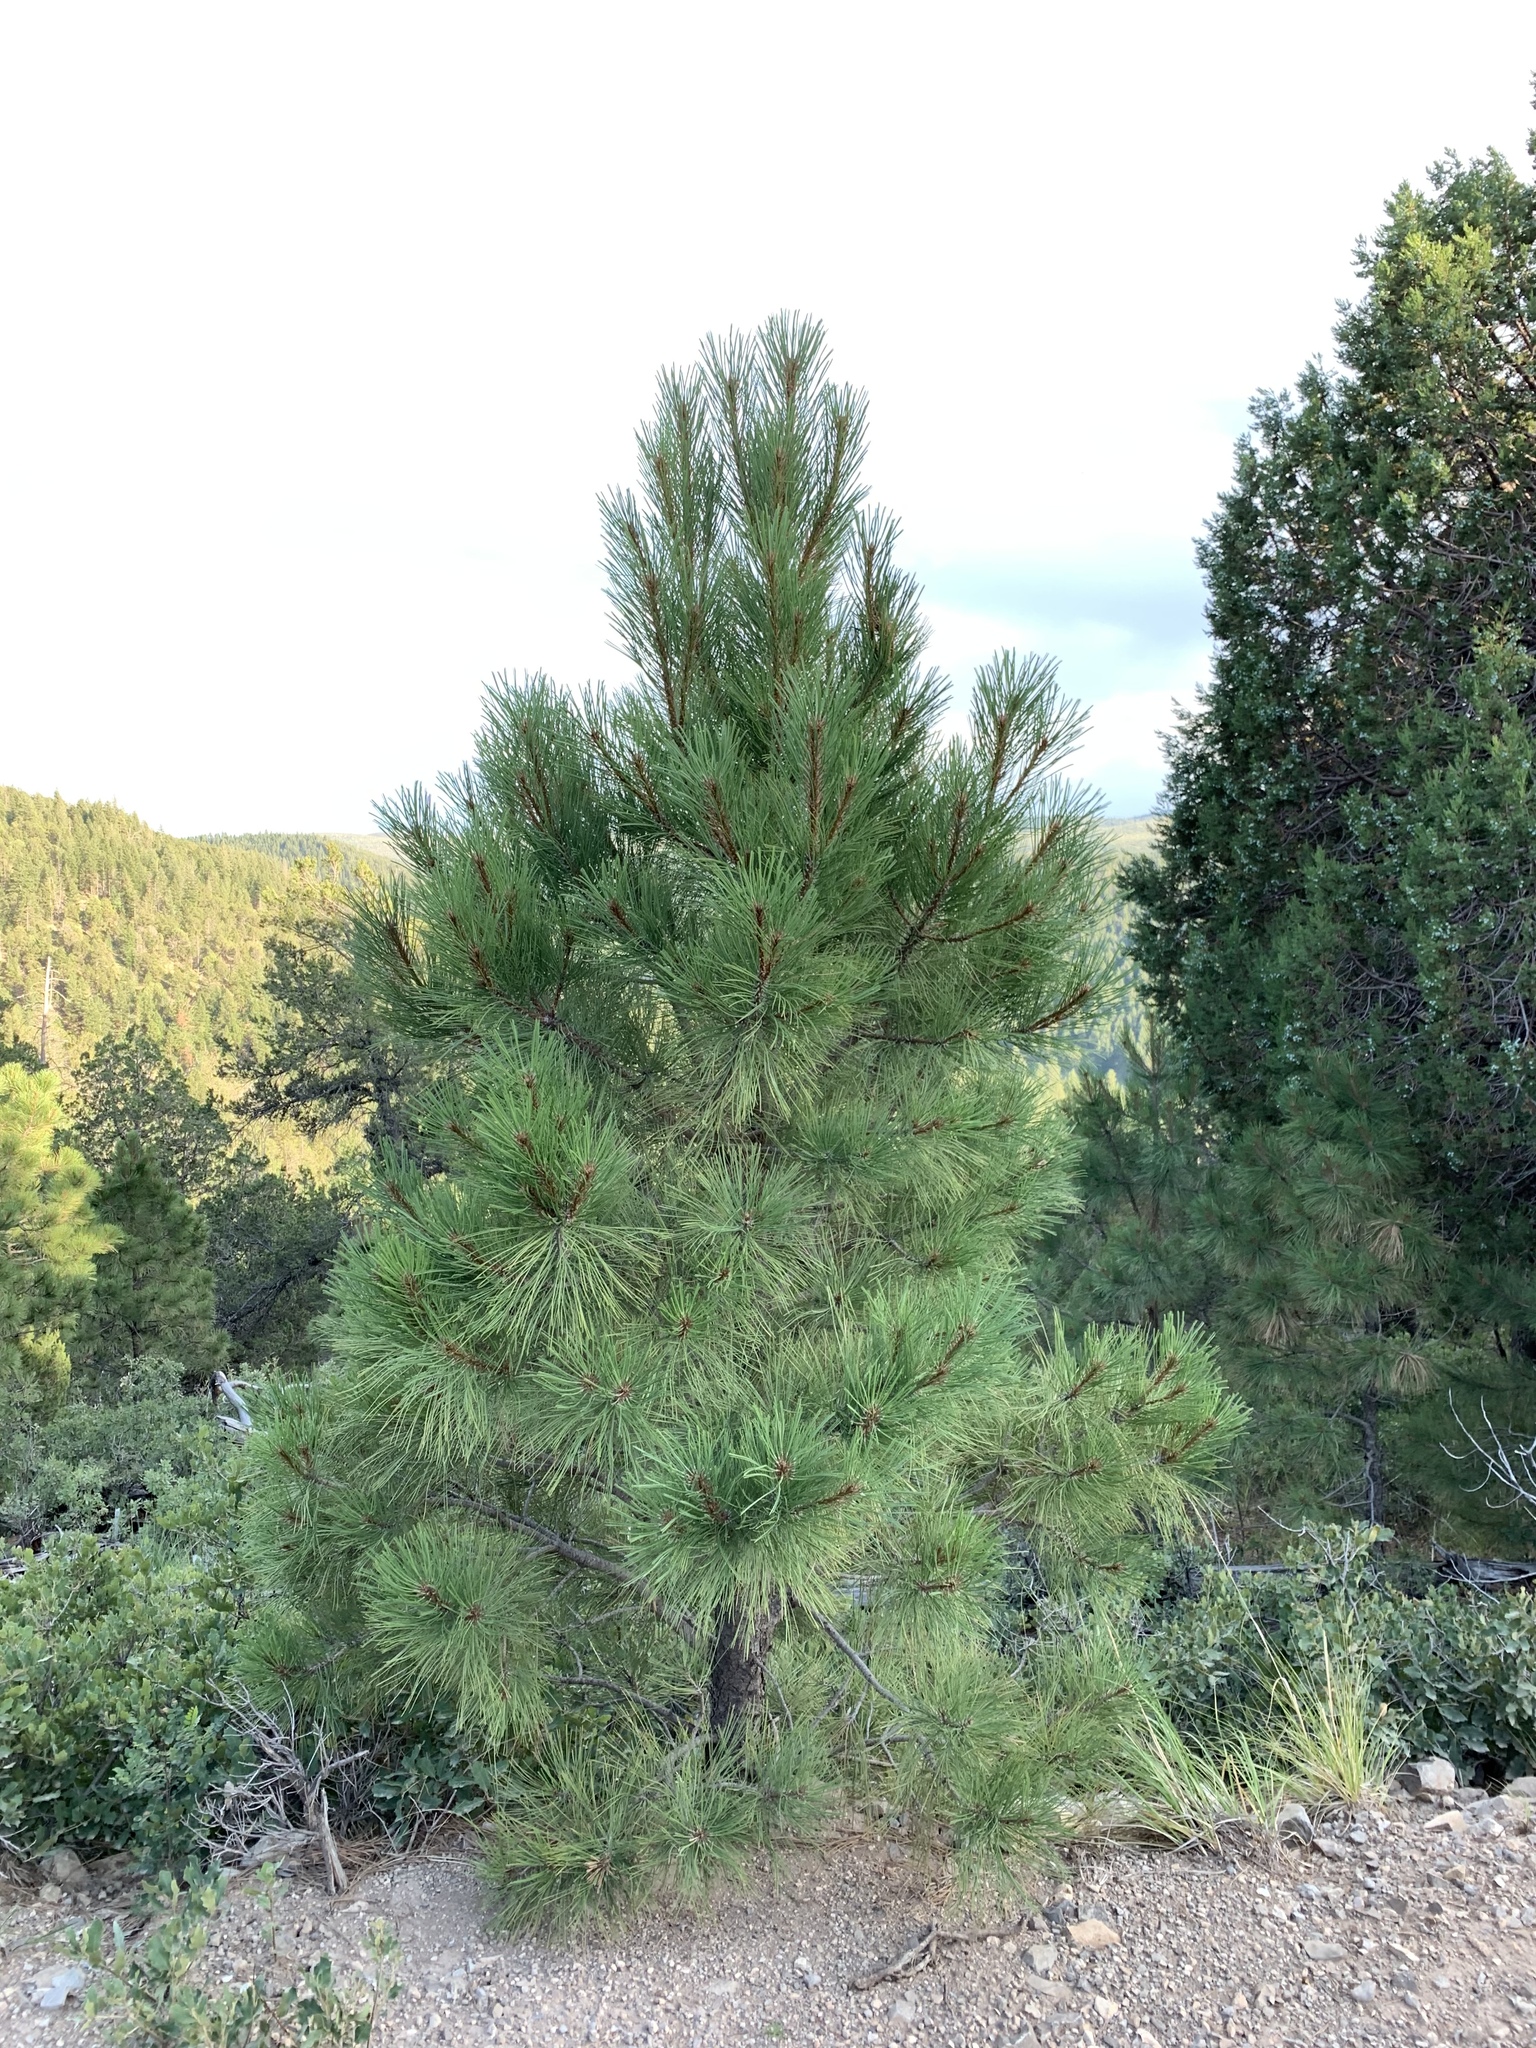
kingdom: Plantae
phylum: Tracheophyta
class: Pinopsida
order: Pinales
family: Pinaceae
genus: Pinus
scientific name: Pinus ponderosa
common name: Western yellow-pine
